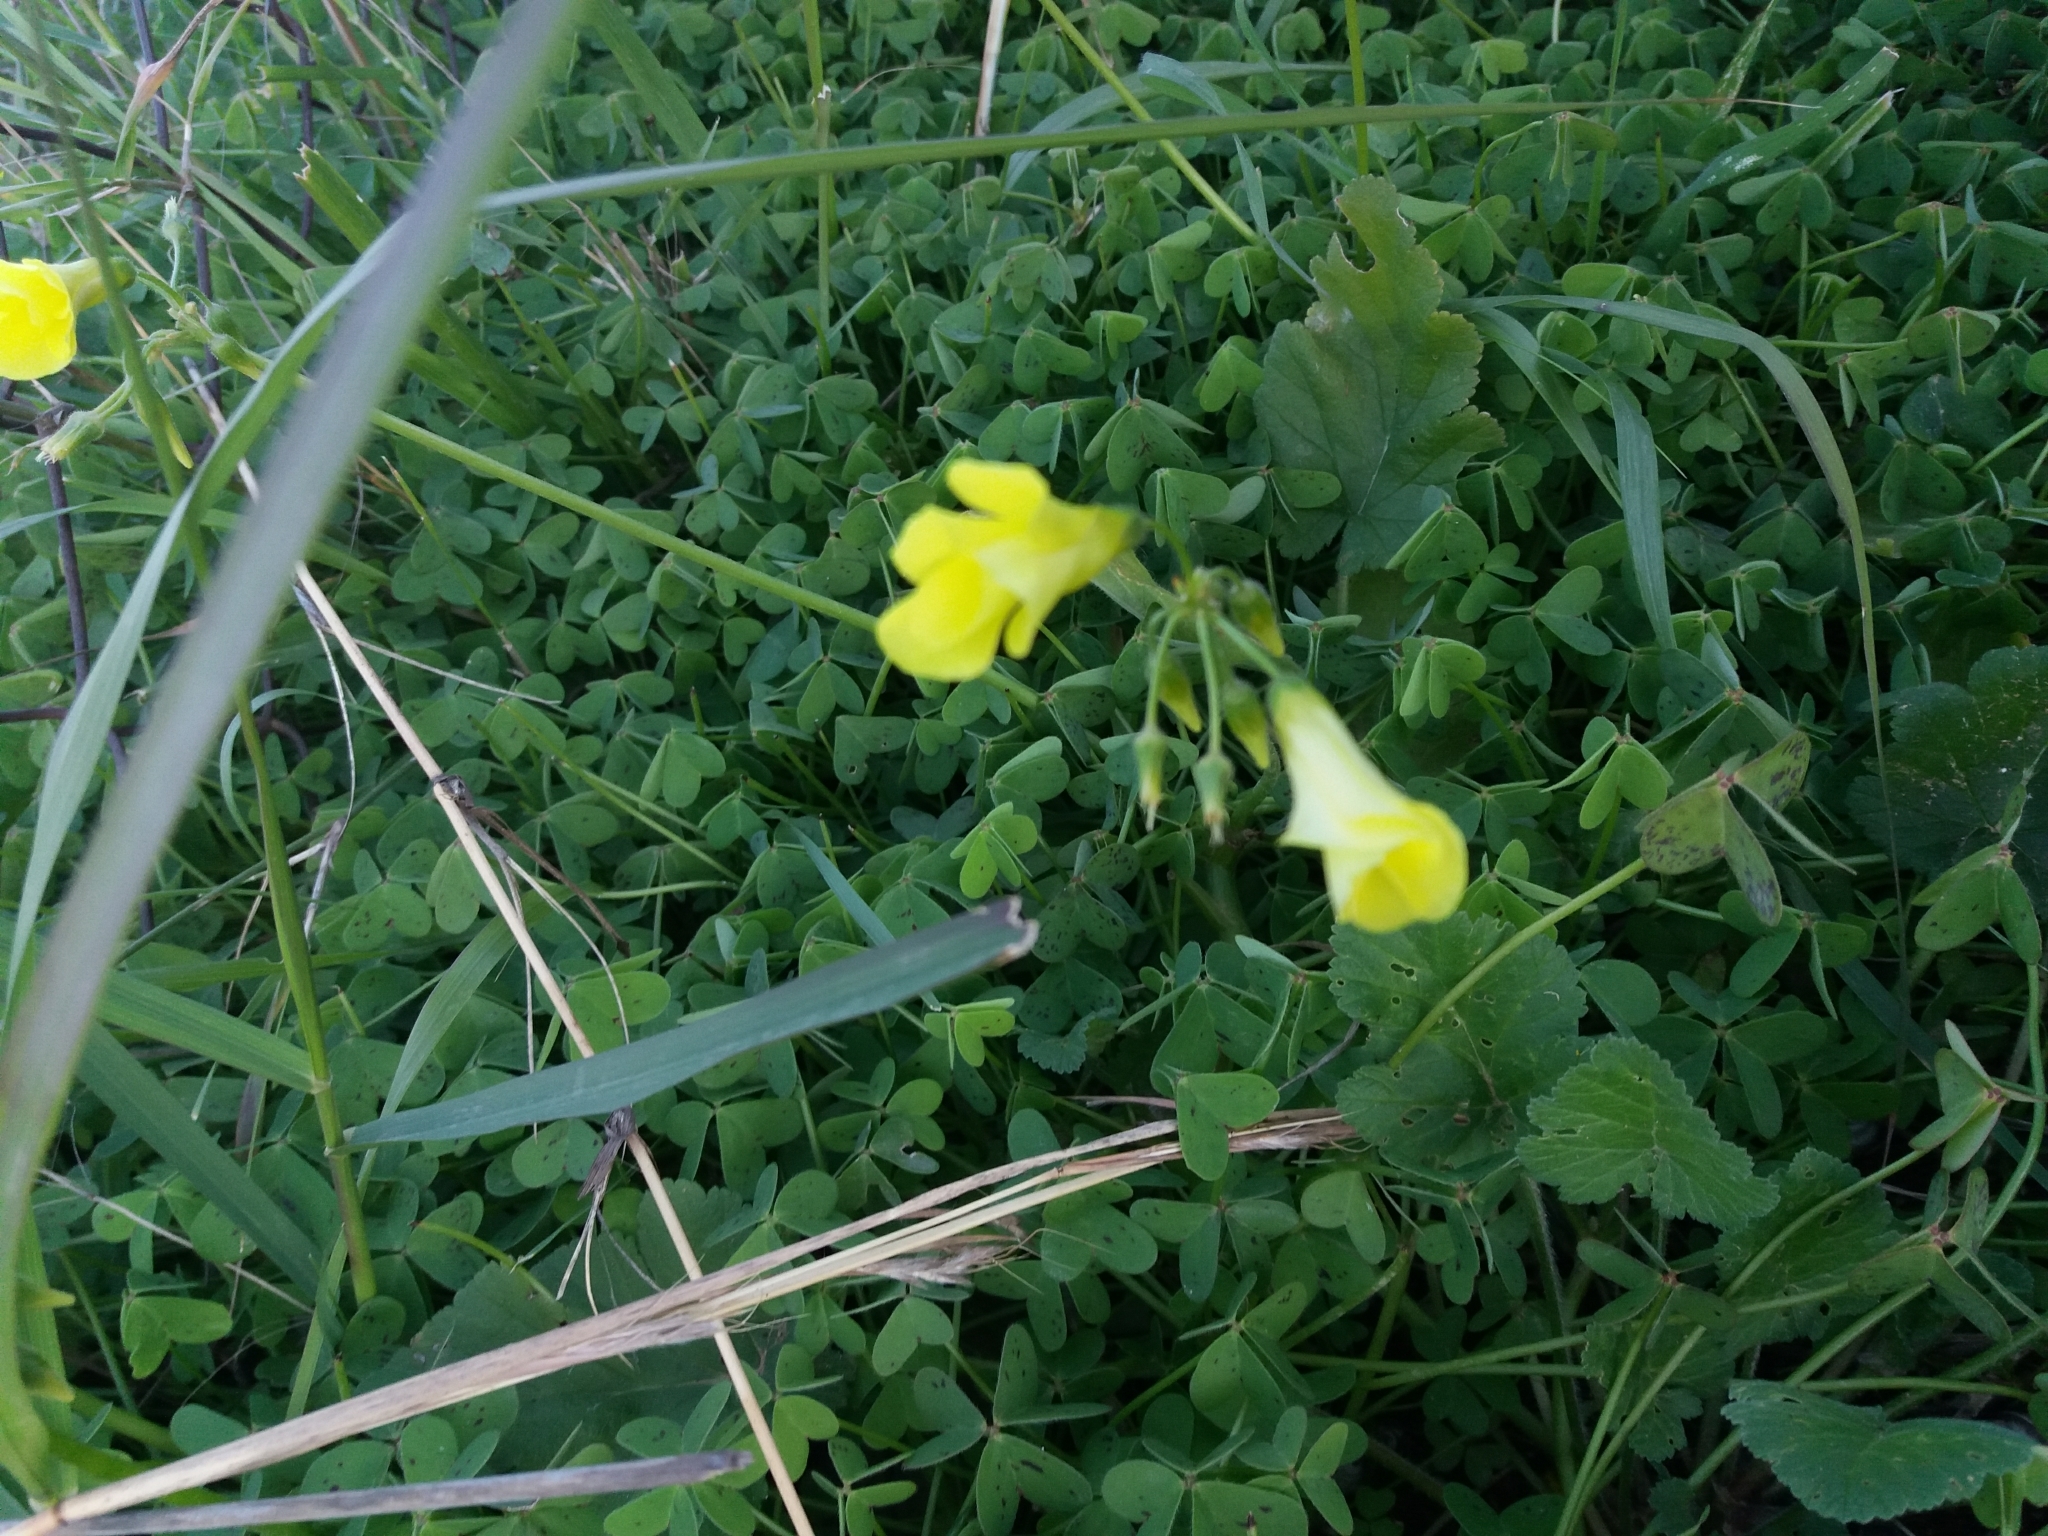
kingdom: Plantae
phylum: Tracheophyta
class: Magnoliopsida
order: Oxalidales
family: Oxalidaceae
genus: Oxalis
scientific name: Oxalis pes-caprae
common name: Bermuda-buttercup
